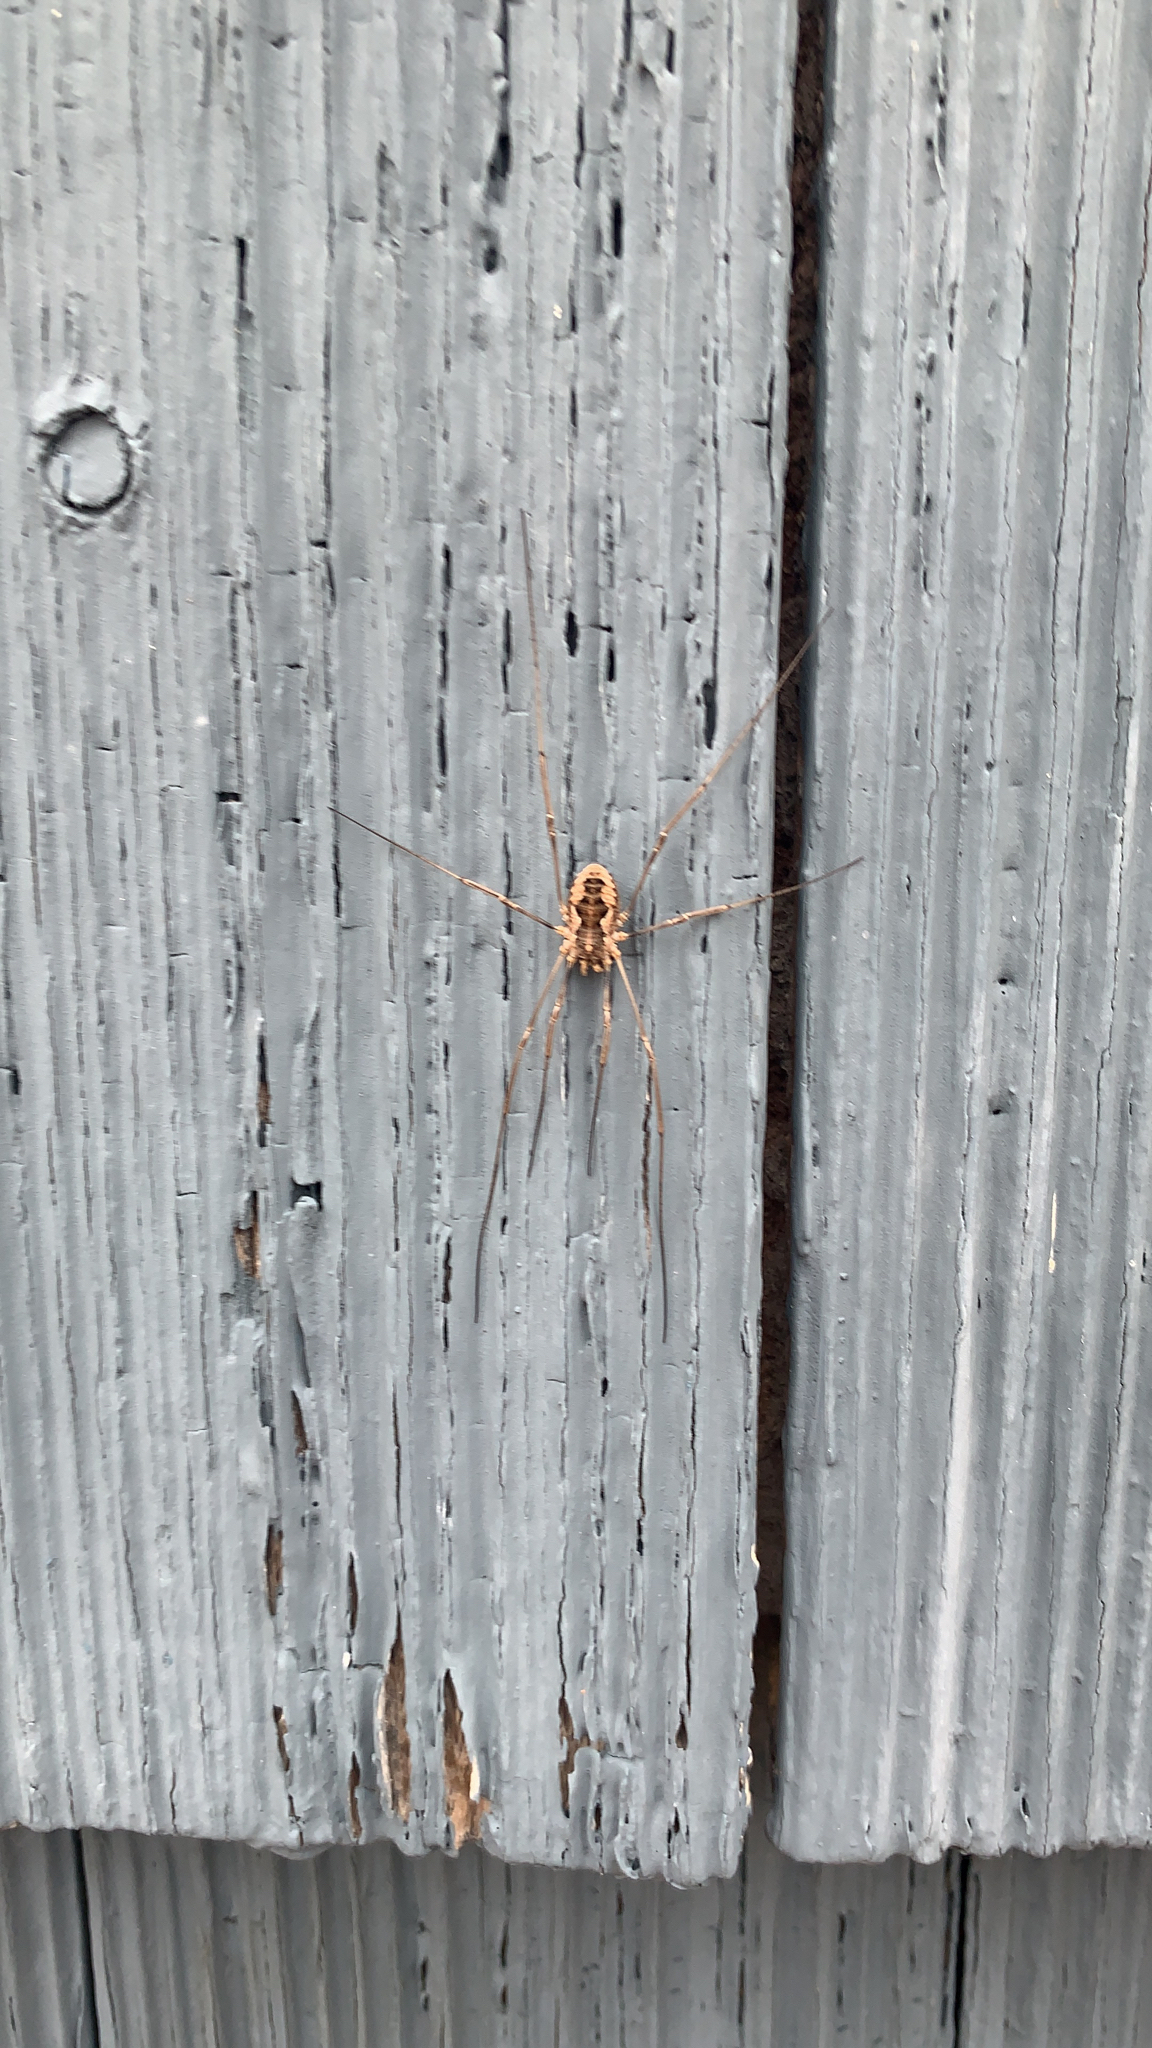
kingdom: Animalia
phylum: Arthropoda
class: Arachnida
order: Opiliones
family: Phalangiidae
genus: Phalangium
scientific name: Phalangium opilio
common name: Daddy longleg
